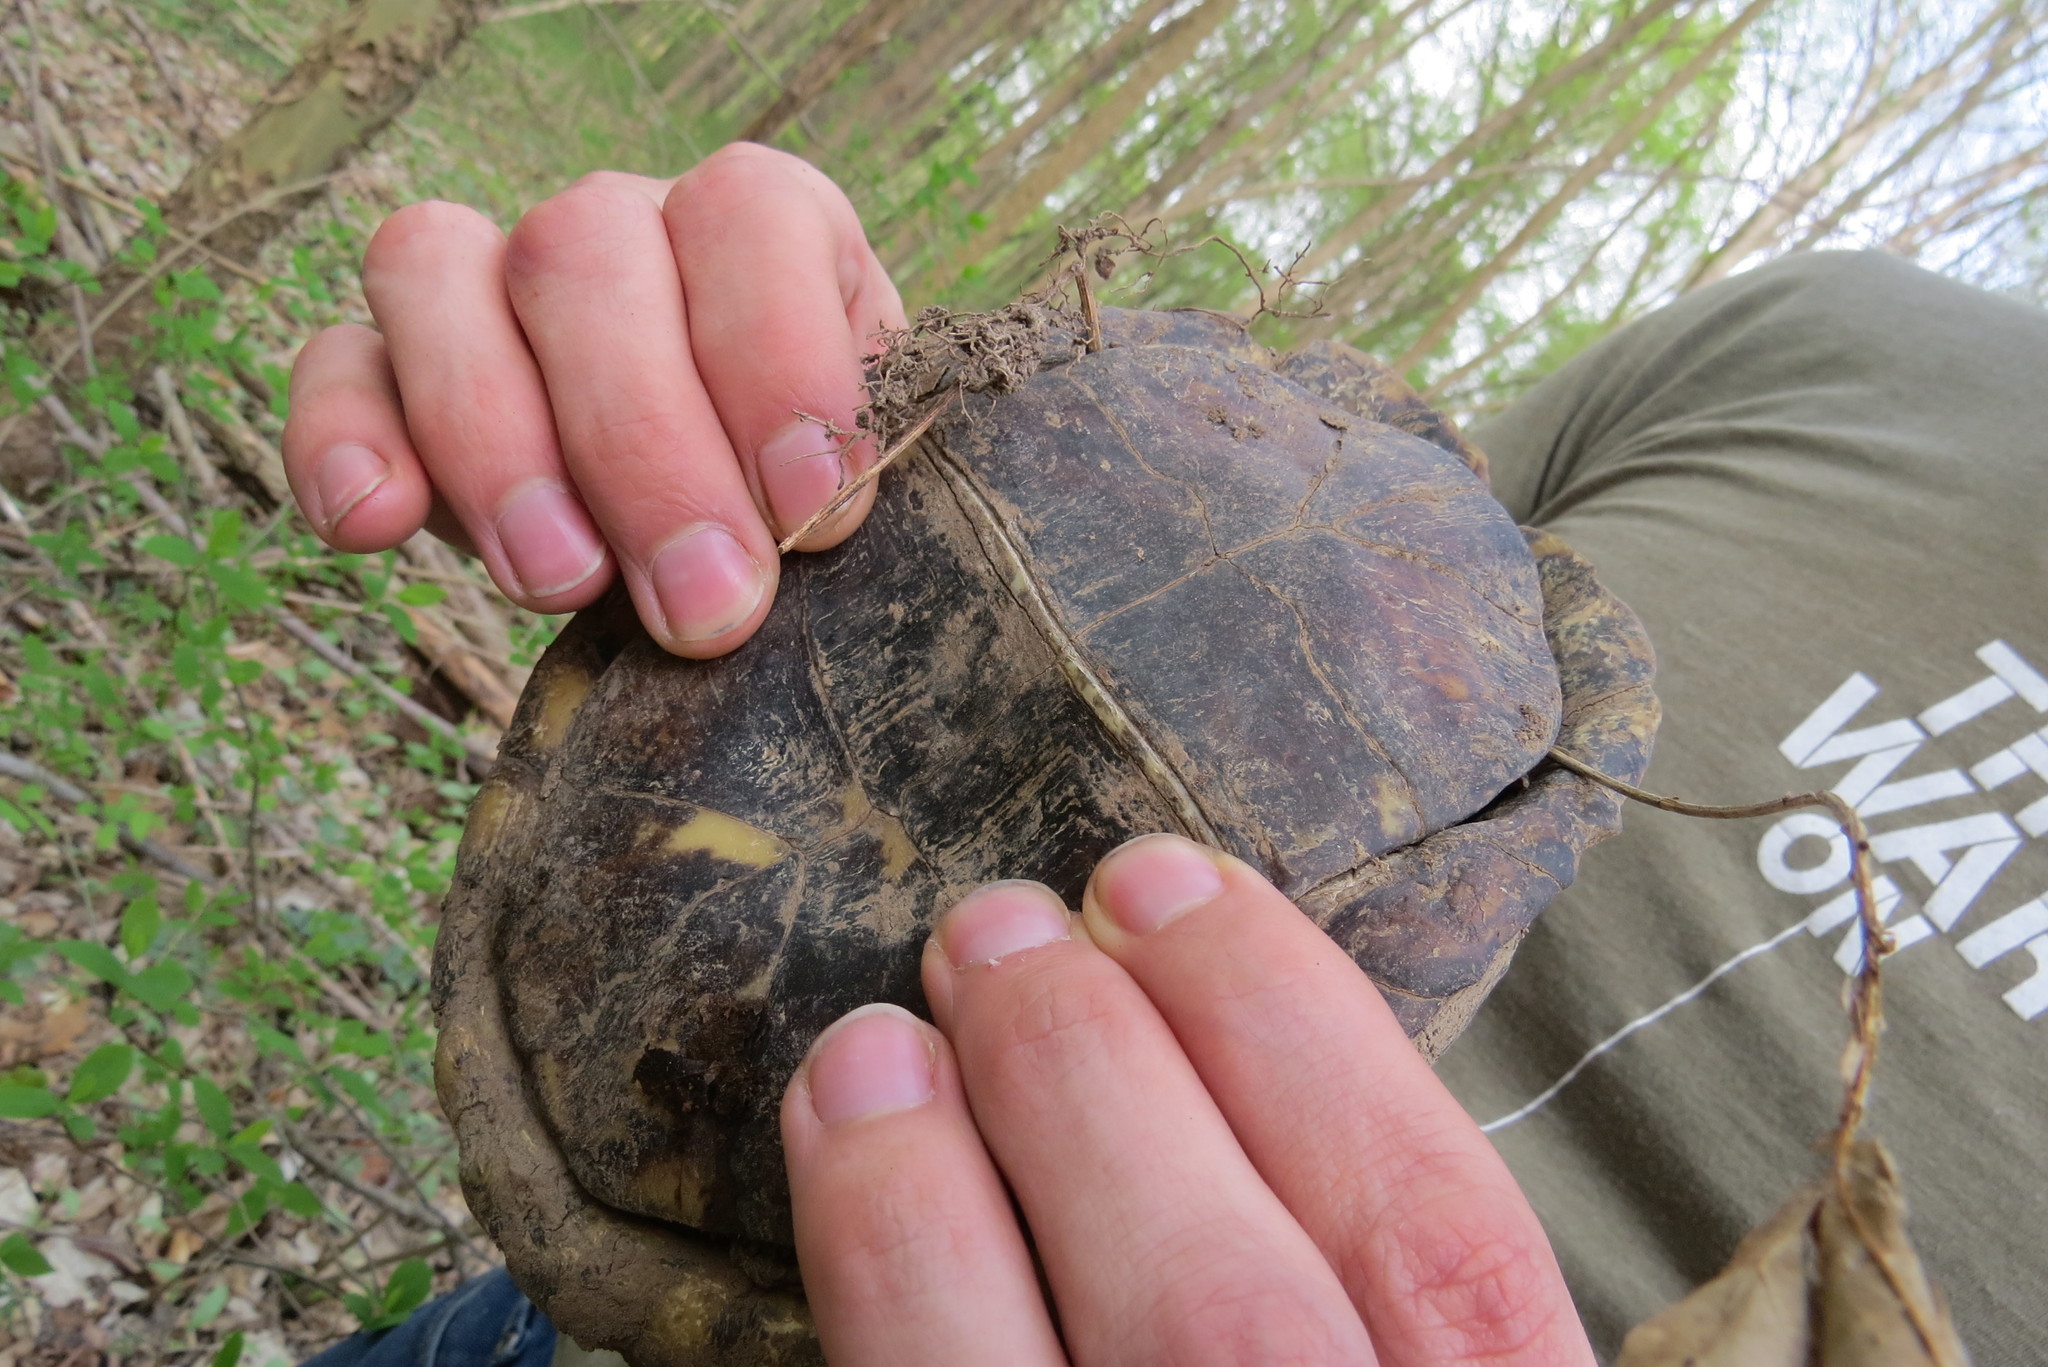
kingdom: Animalia
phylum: Chordata
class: Testudines
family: Emydidae
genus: Terrapene
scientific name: Terrapene carolina
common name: Common box turtle
